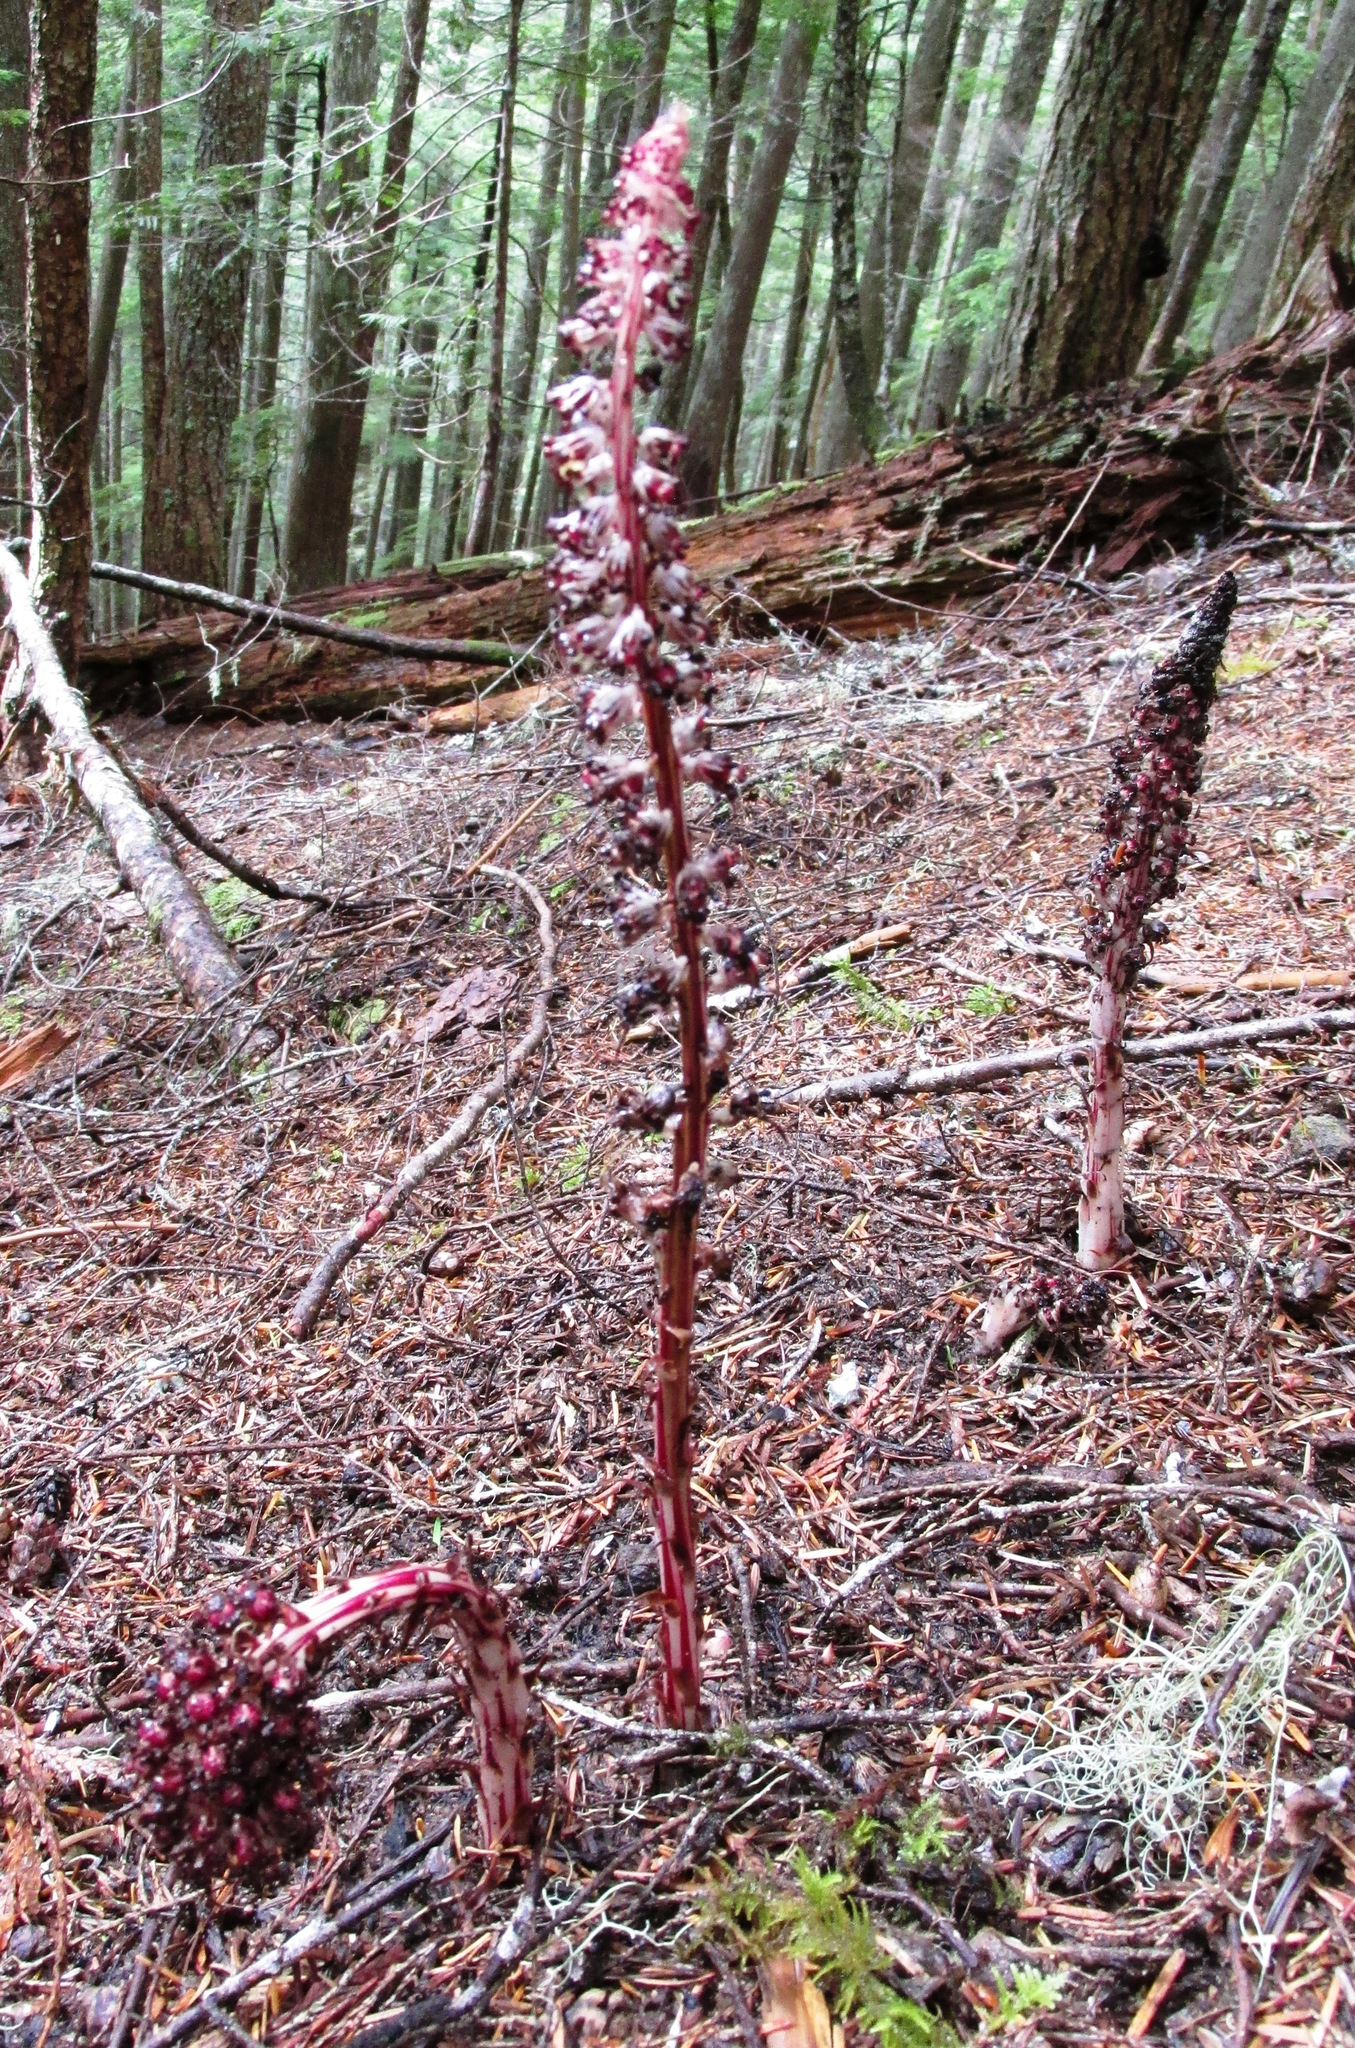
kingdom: Plantae
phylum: Tracheophyta
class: Magnoliopsida
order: Ericales
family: Ericaceae
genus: Allotropa
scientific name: Allotropa virgata
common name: Candy-striped allotropa
